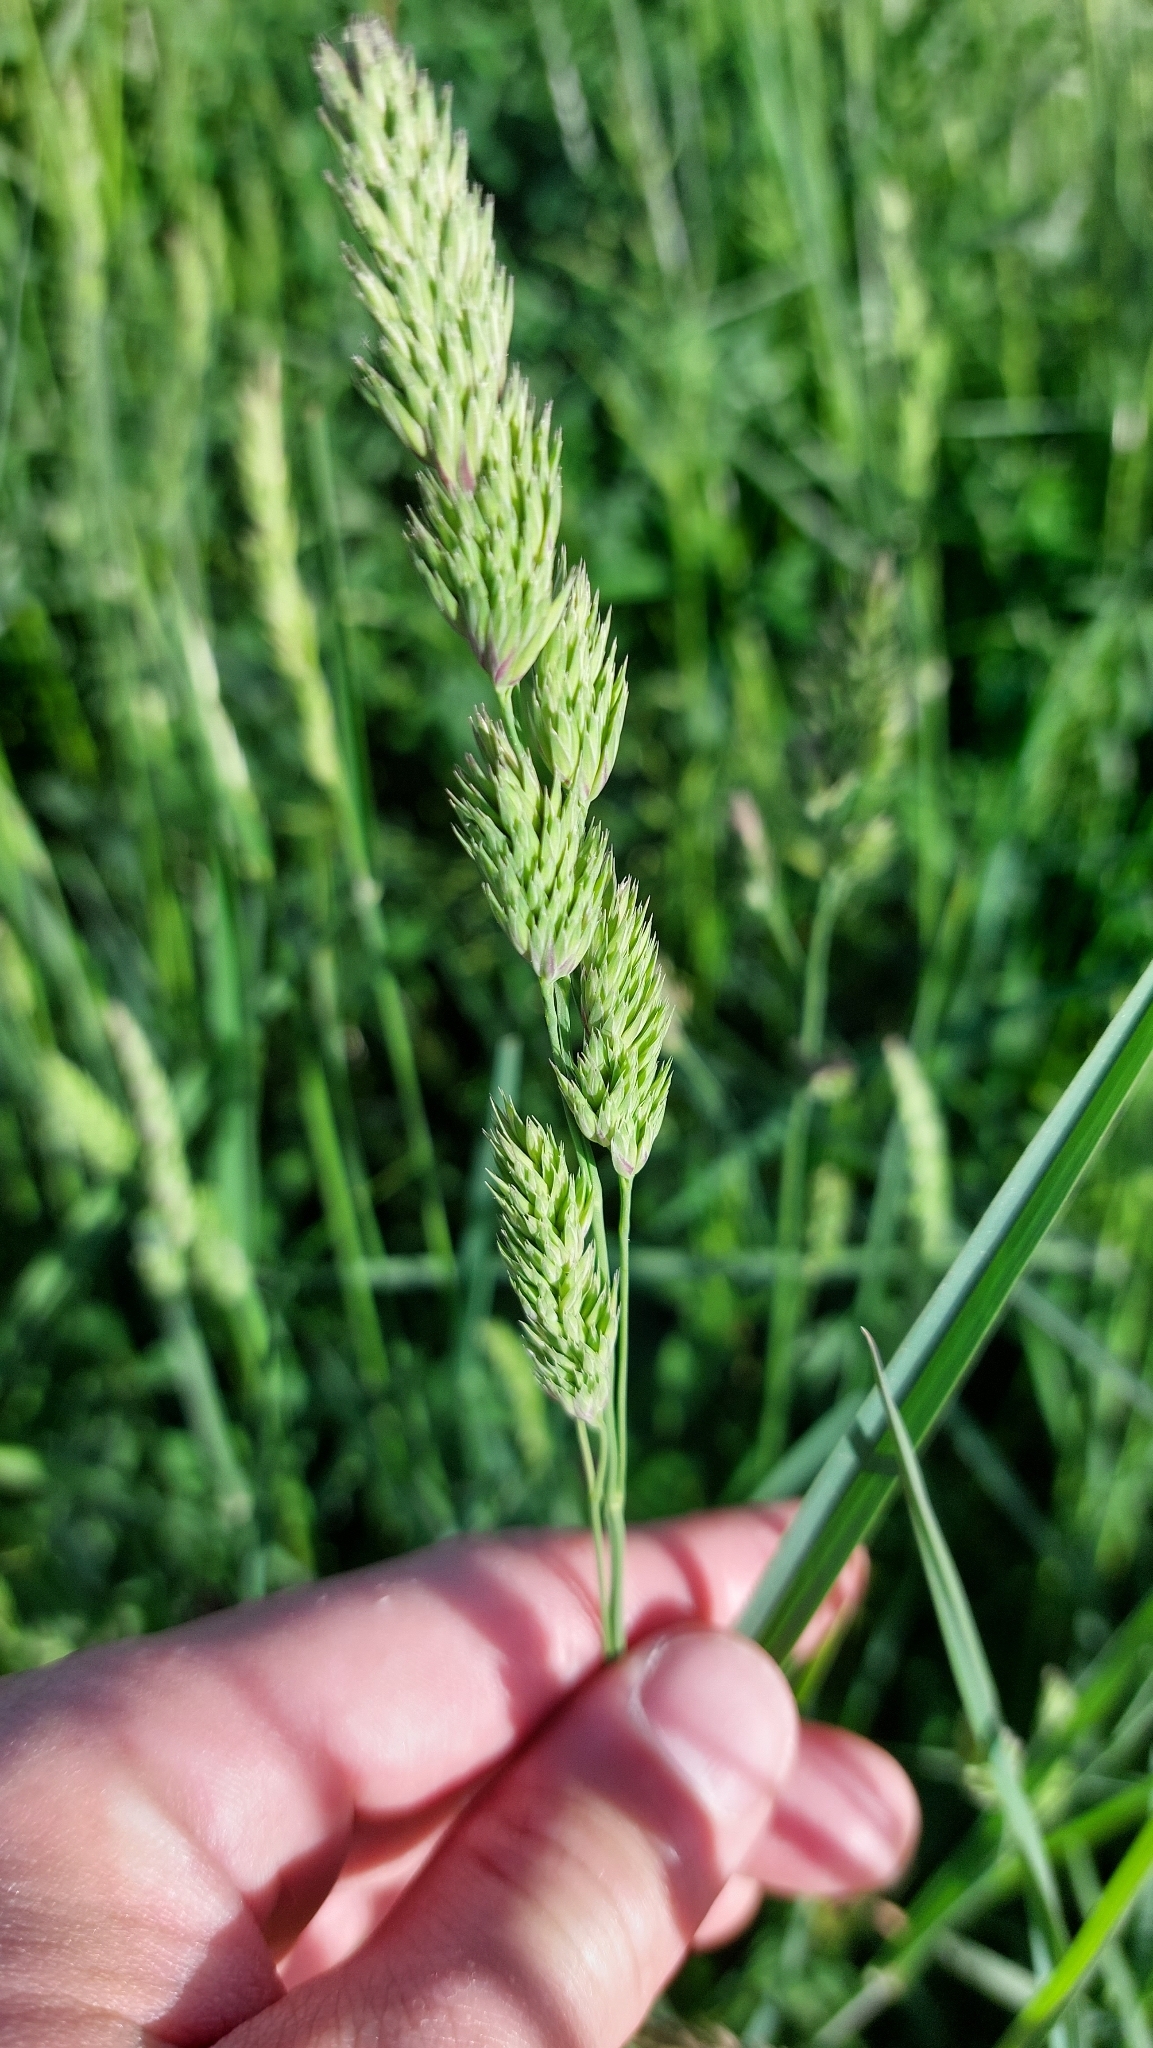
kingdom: Plantae
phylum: Tracheophyta
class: Liliopsida
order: Poales
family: Poaceae
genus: Dactylis
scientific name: Dactylis glomerata
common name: Orchardgrass
